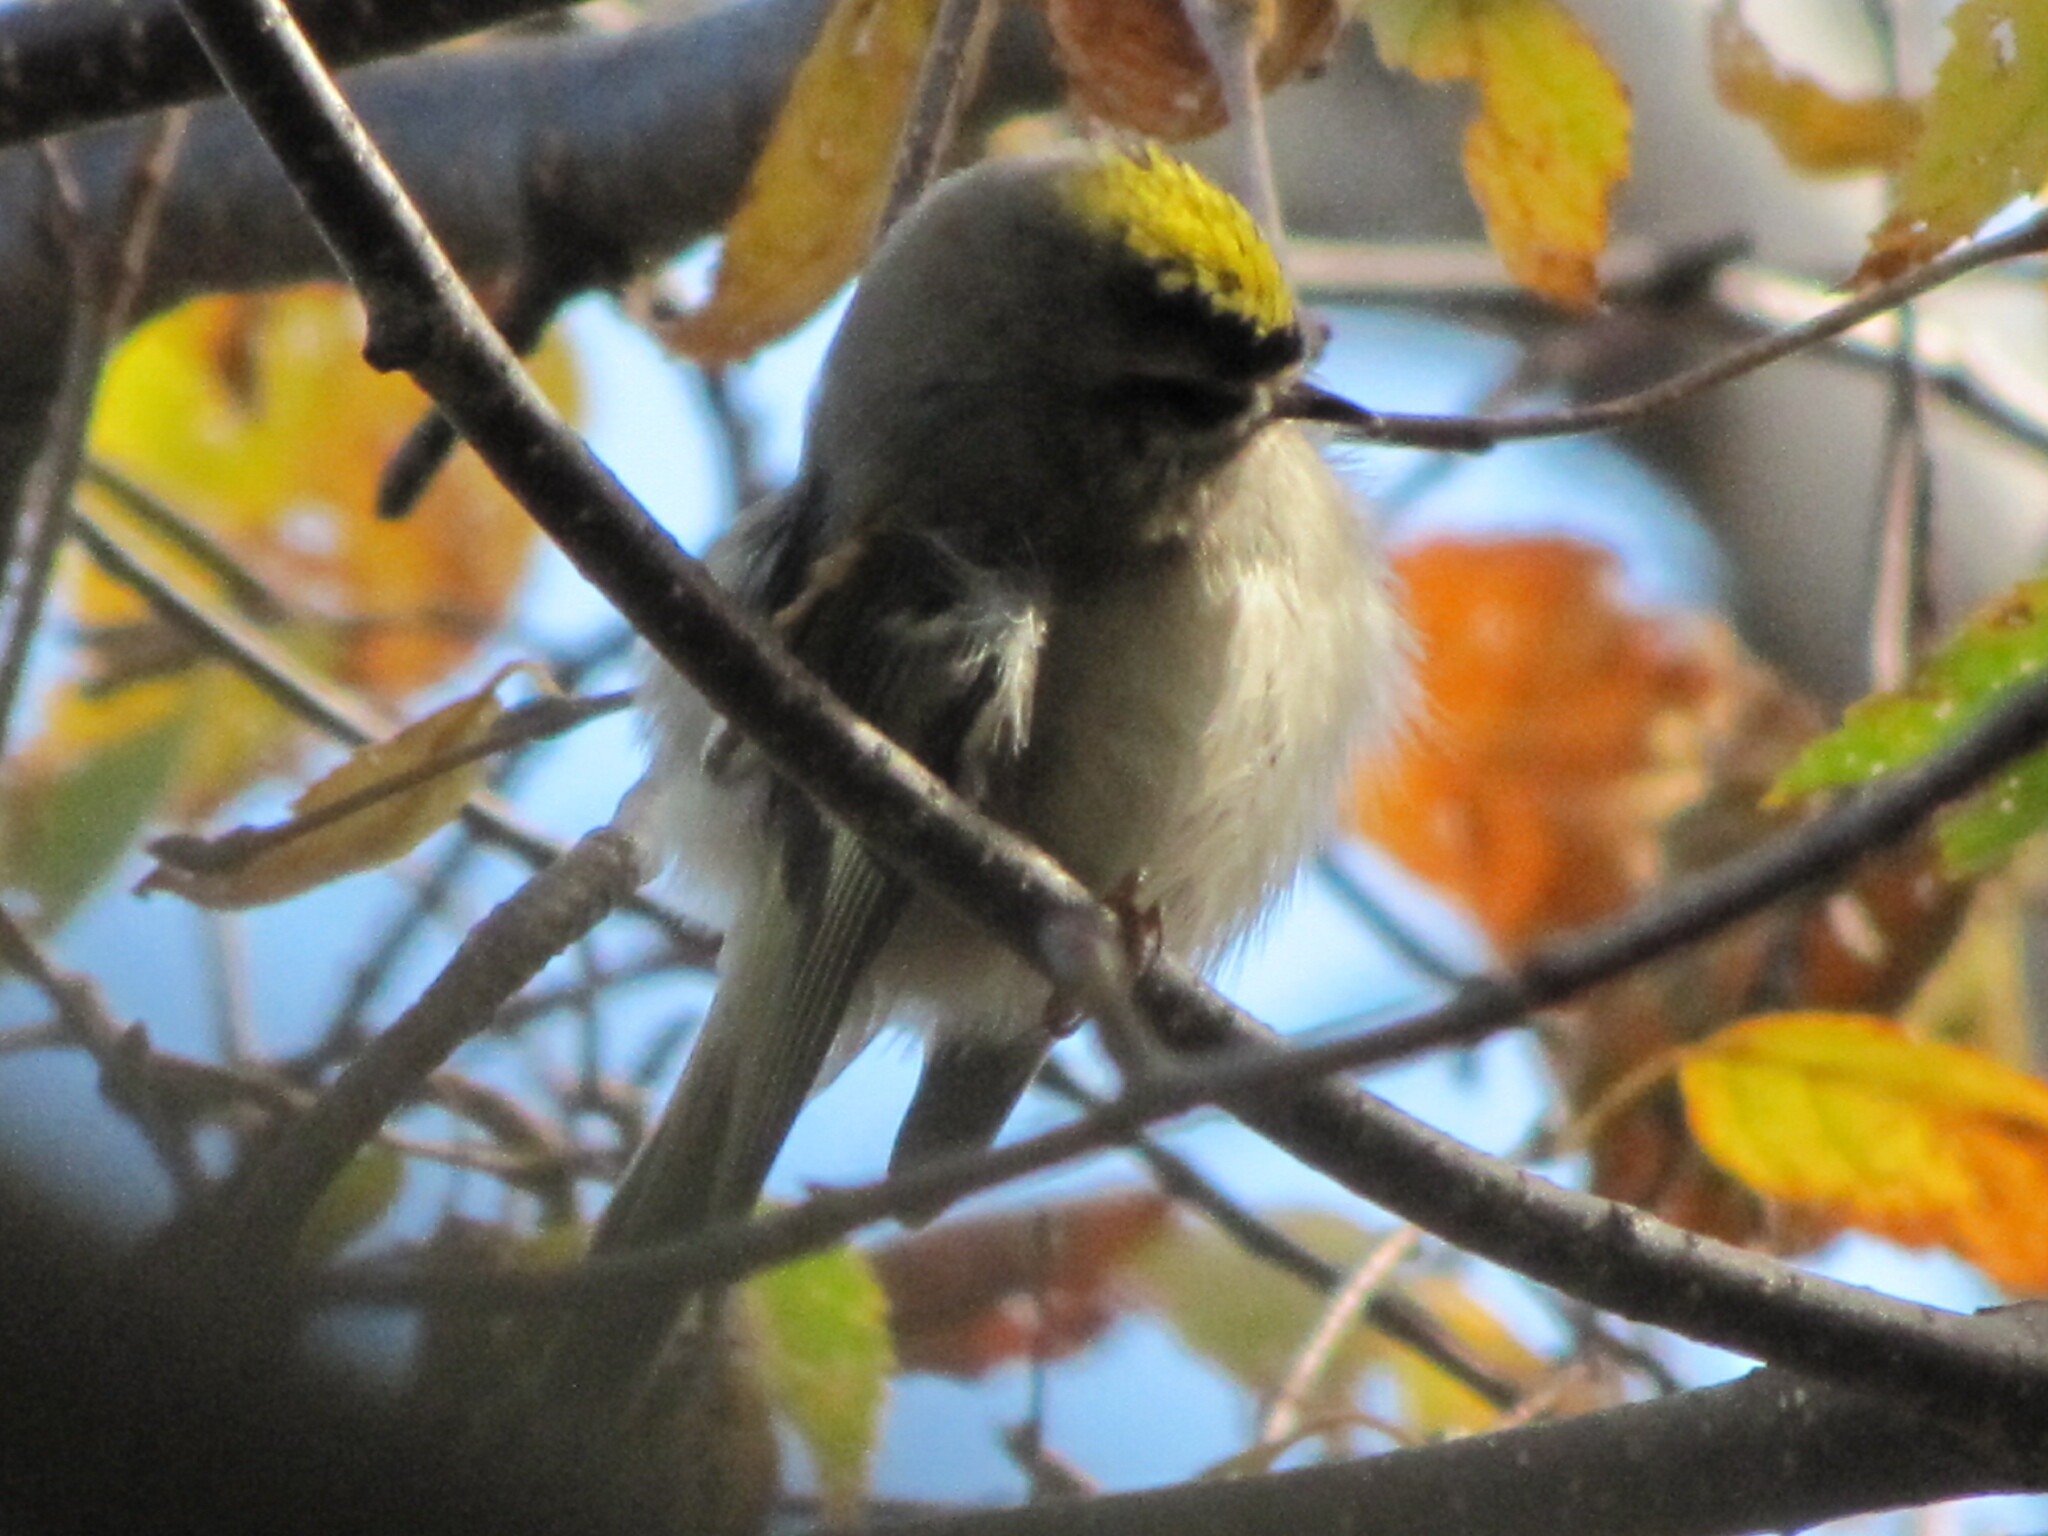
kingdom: Animalia
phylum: Chordata
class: Aves
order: Passeriformes
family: Regulidae
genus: Regulus
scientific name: Regulus satrapa
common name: Golden-crowned kinglet
